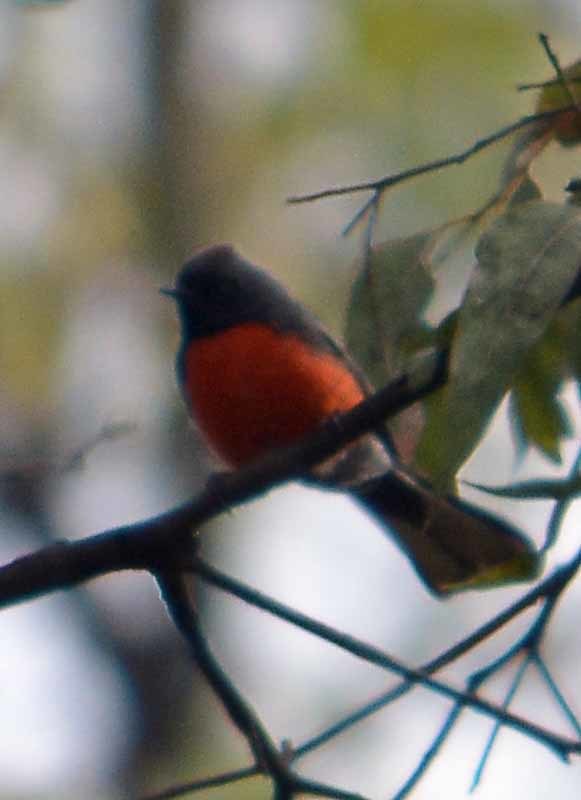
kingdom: Animalia
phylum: Chordata
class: Aves
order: Passeriformes
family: Parulidae
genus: Myioborus
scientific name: Myioborus miniatus
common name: Slate-throated redstart
